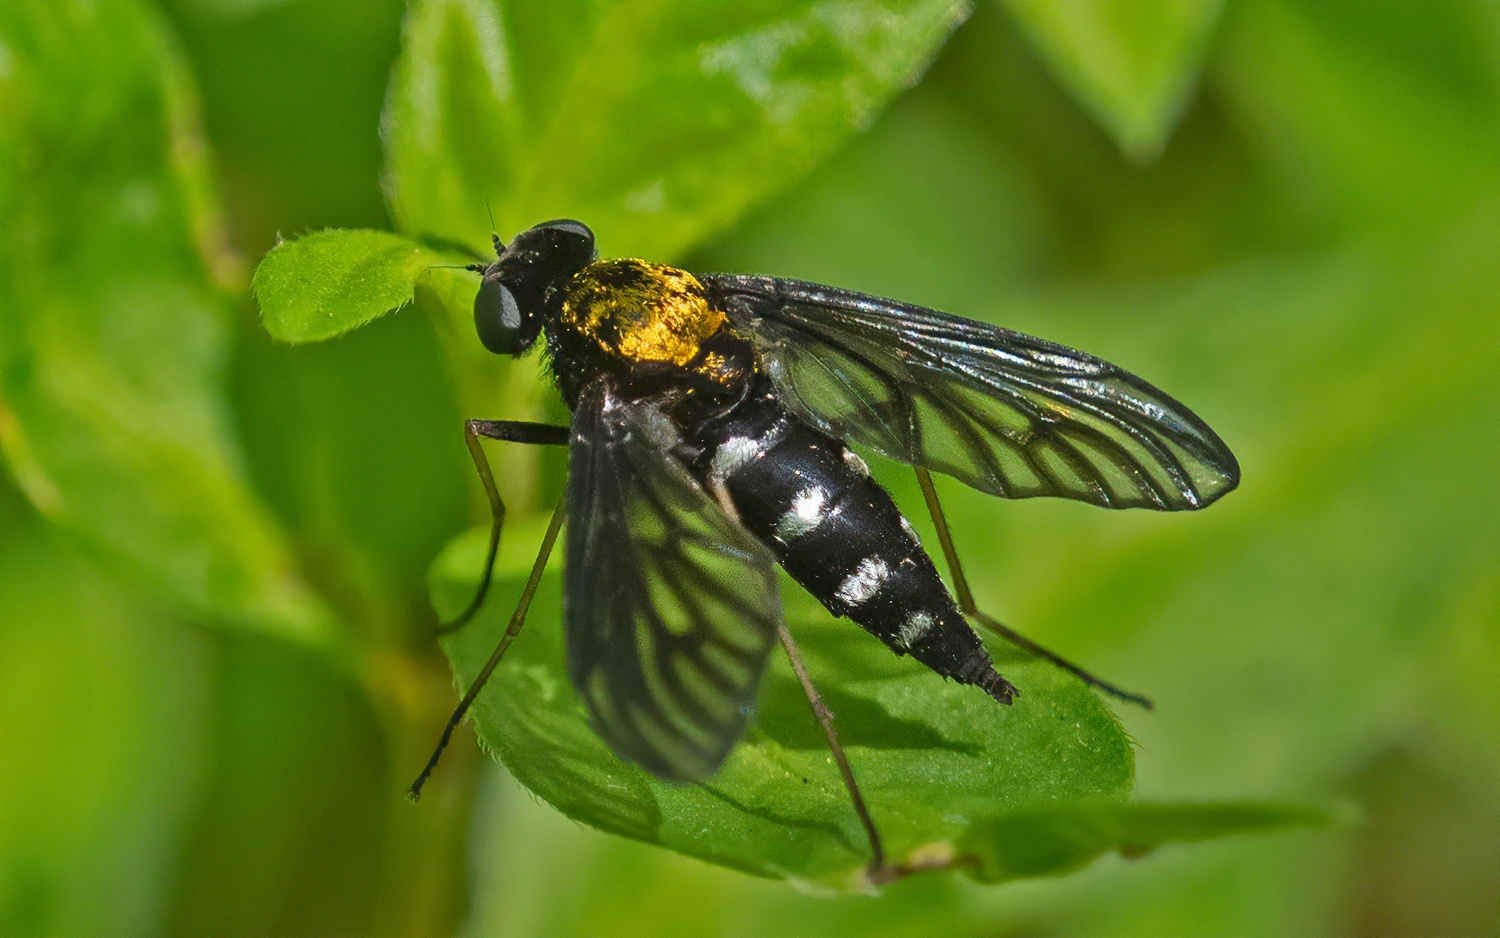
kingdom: Animalia
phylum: Arthropoda
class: Insecta
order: Diptera
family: Rhagionidae
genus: Chrysopilus
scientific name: Chrysopilus thoracicus
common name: Golden-backed snipe fly
